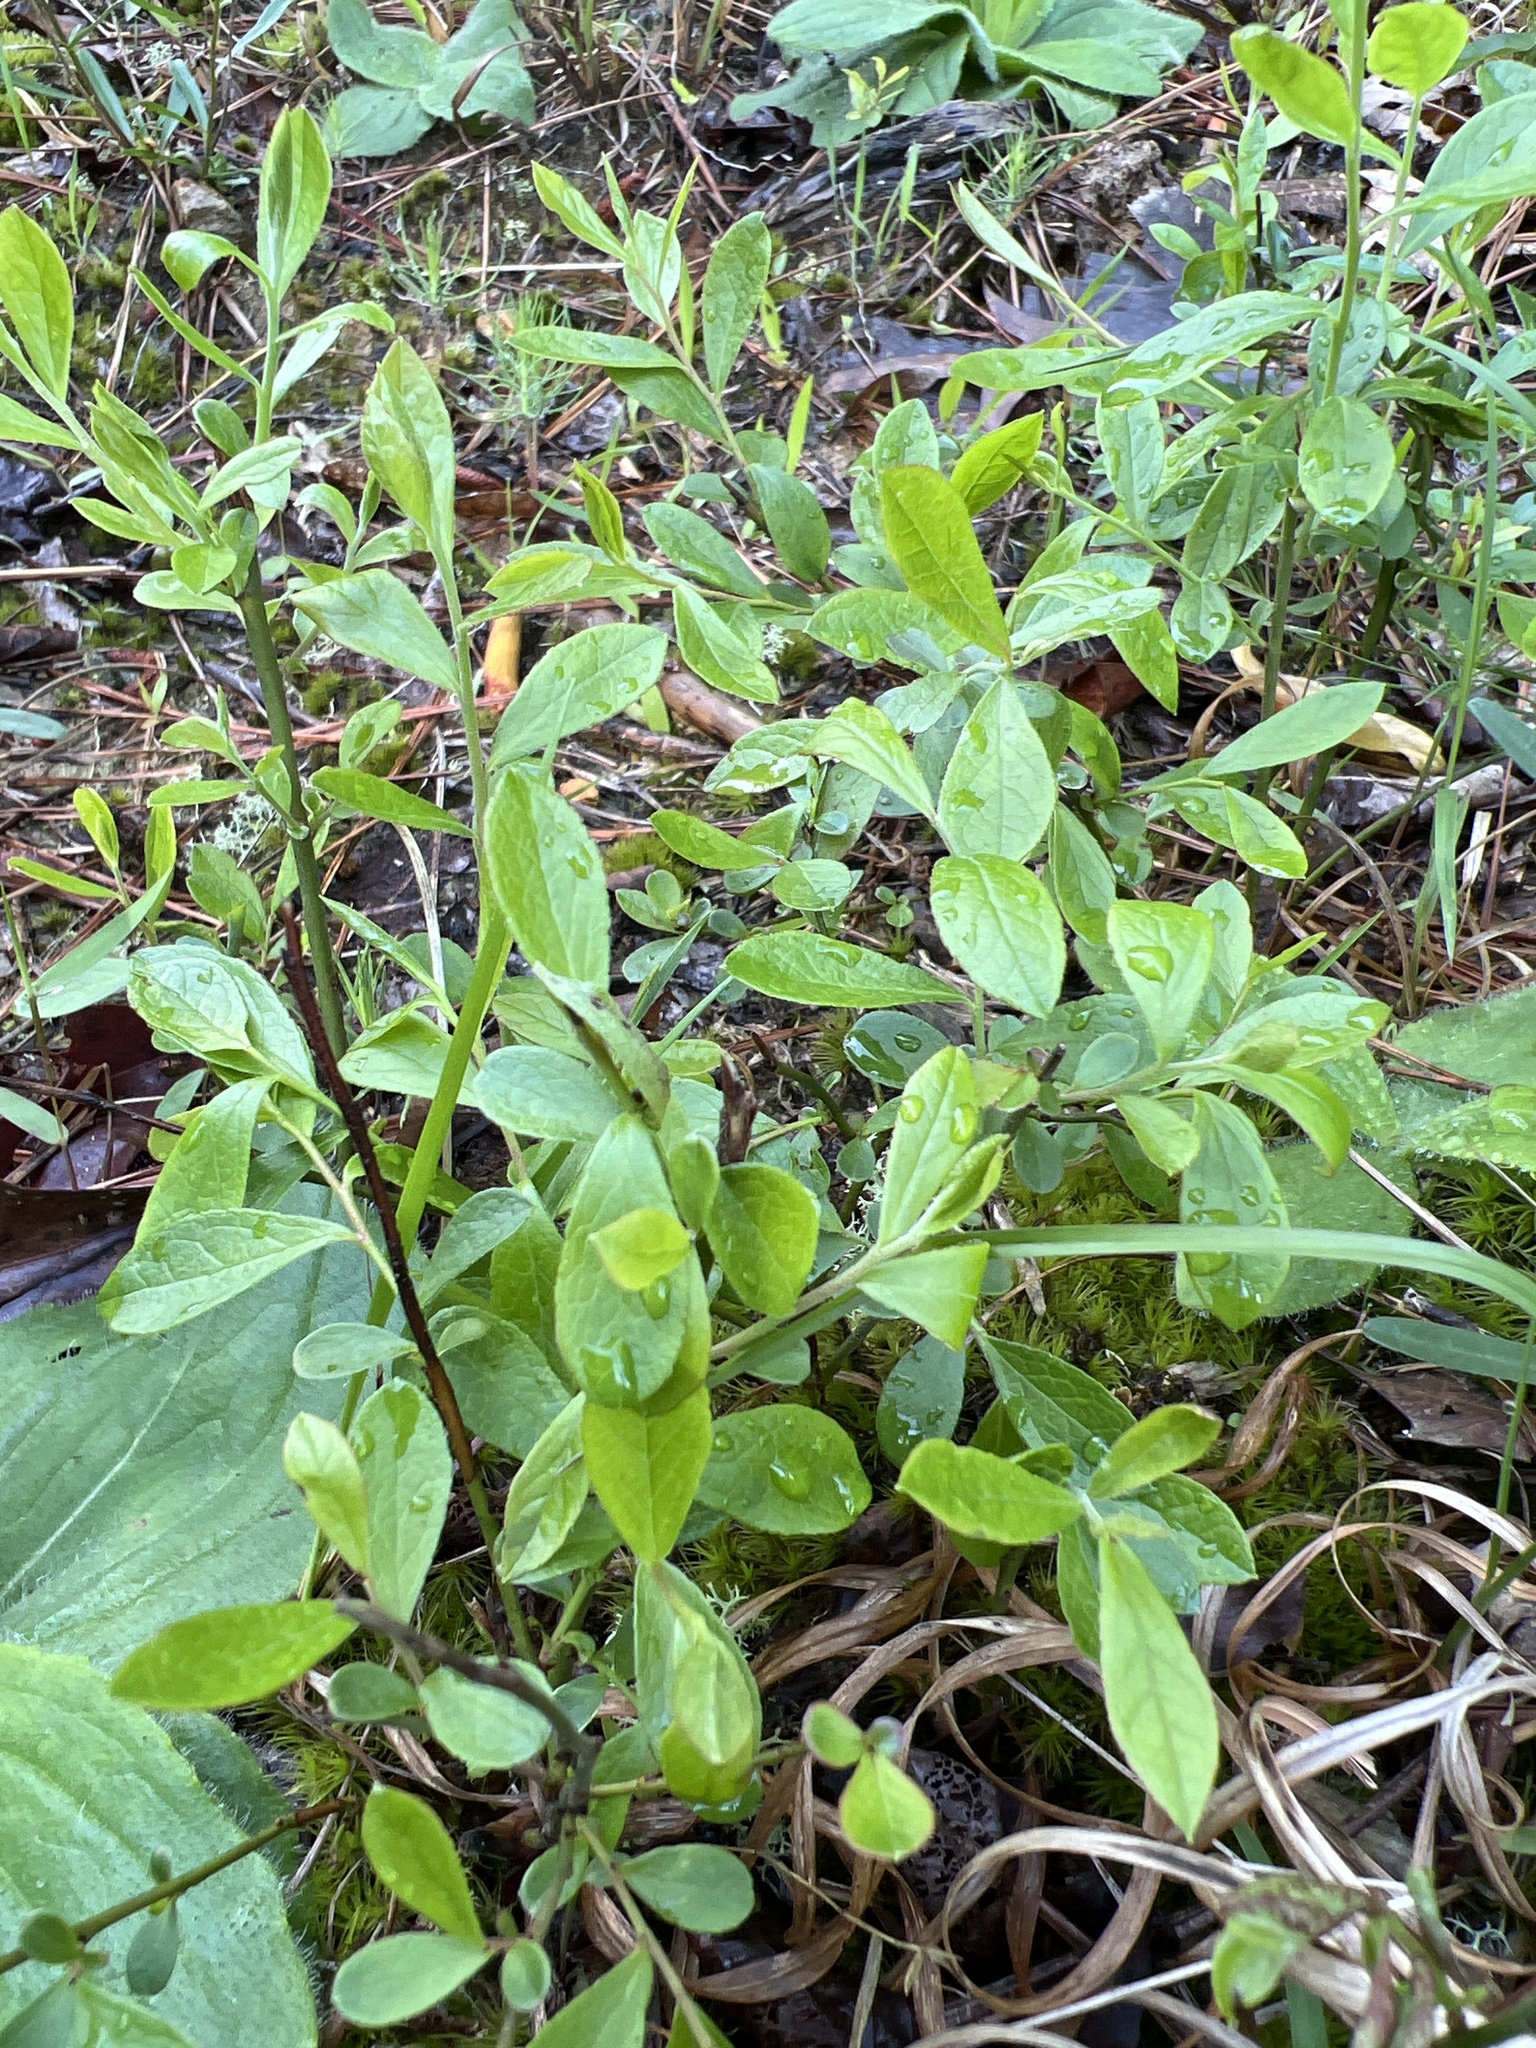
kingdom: Plantae
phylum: Tracheophyta
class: Magnoliopsida
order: Ericales
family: Ericaceae
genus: Vaccinium
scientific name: Vaccinium tenellum
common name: Southern blueberry
